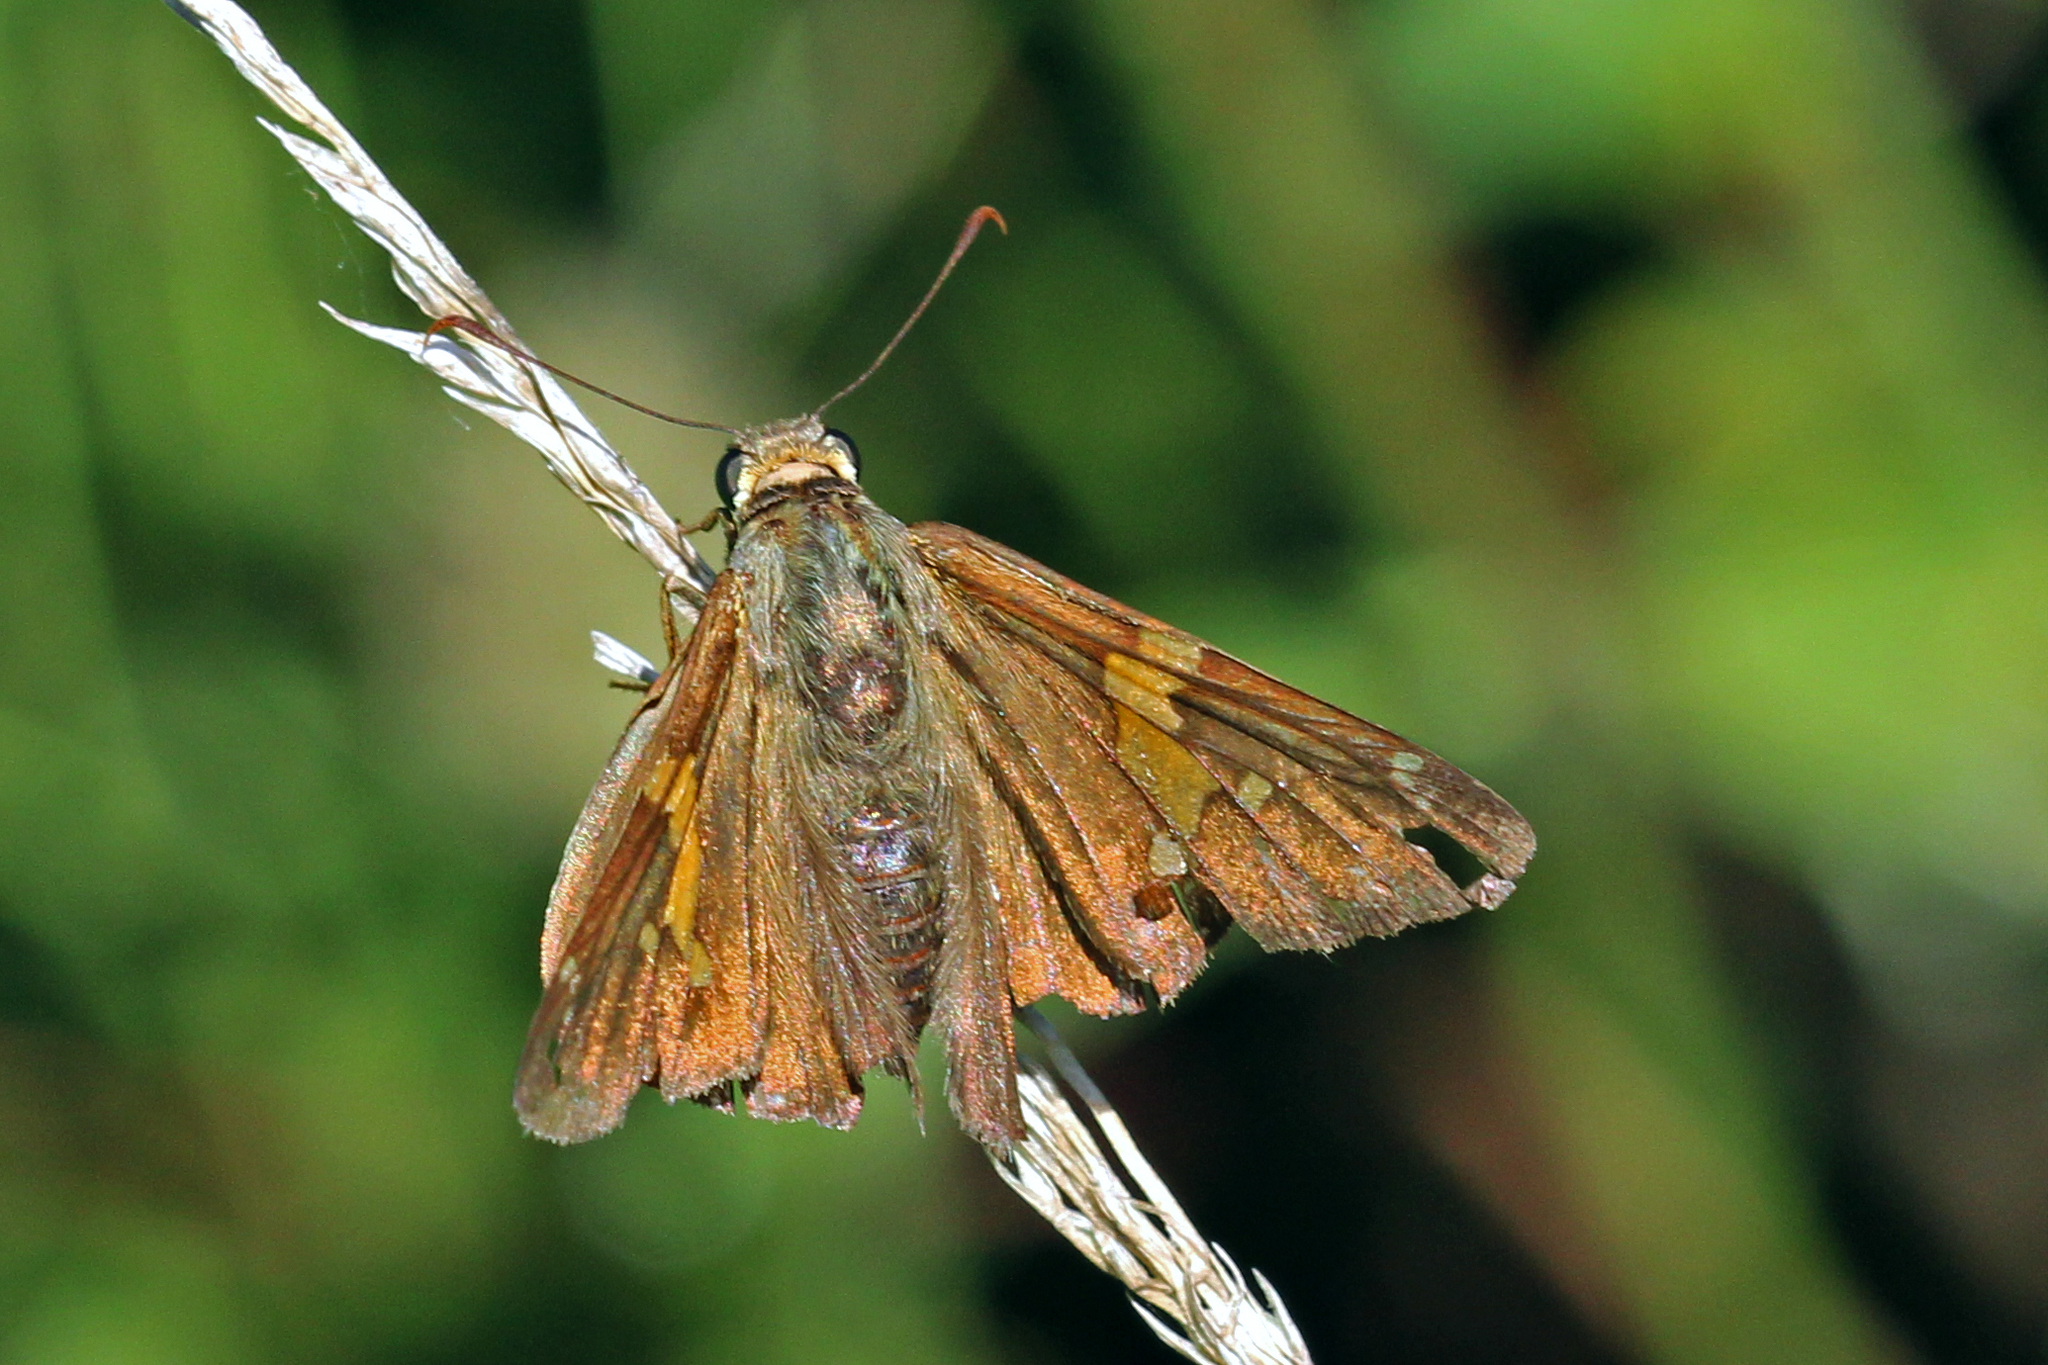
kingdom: Animalia
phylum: Arthropoda
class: Insecta
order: Lepidoptera
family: Hesperiidae
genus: Epargyreus
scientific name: Epargyreus clarus
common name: Silver-spotted skipper
